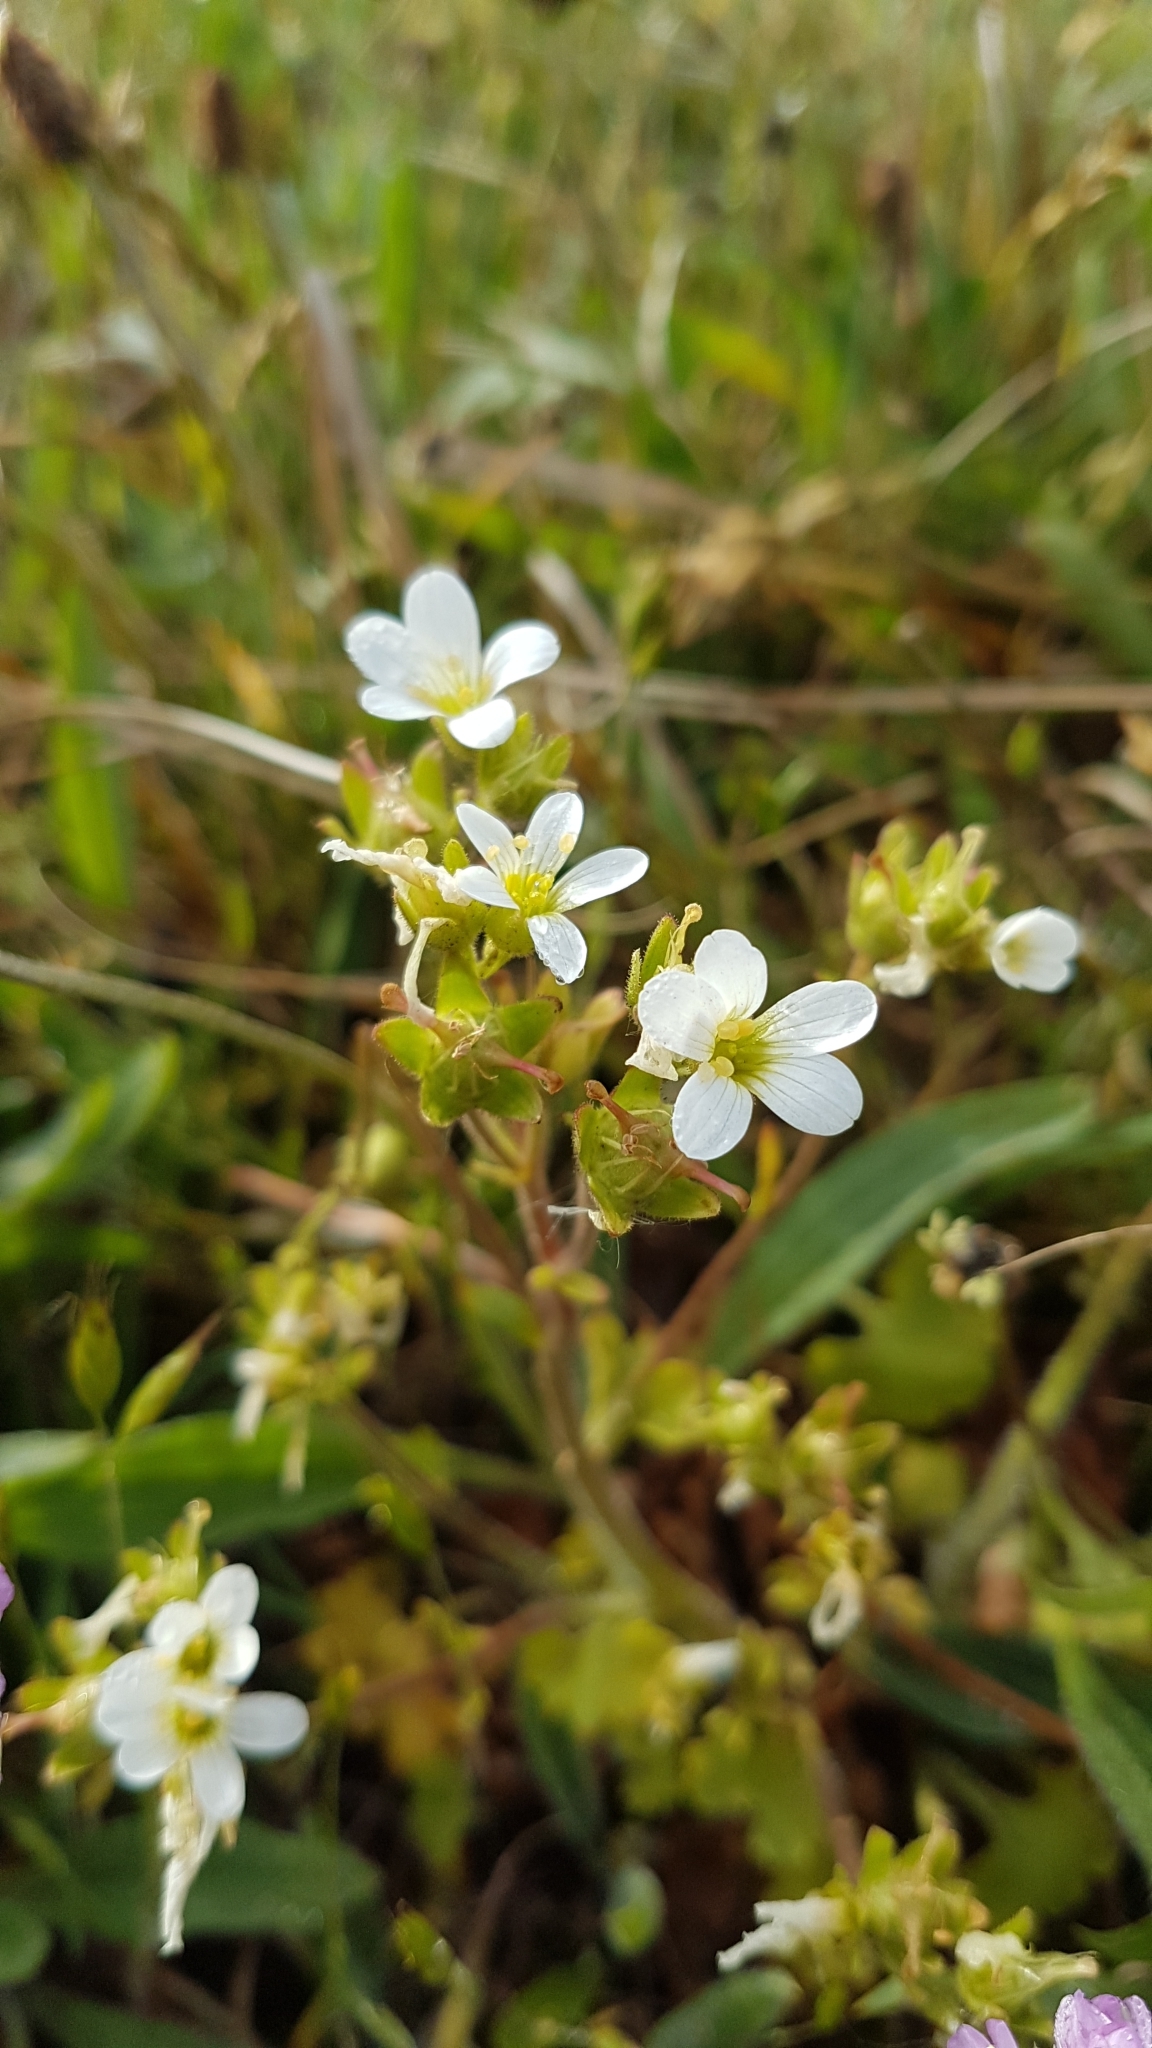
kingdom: Plantae
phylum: Tracheophyta
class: Magnoliopsida
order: Saxifragales
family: Saxifragaceae
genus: Saxifraga
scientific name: Saxifraga granulata
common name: Meadow saxifrage
